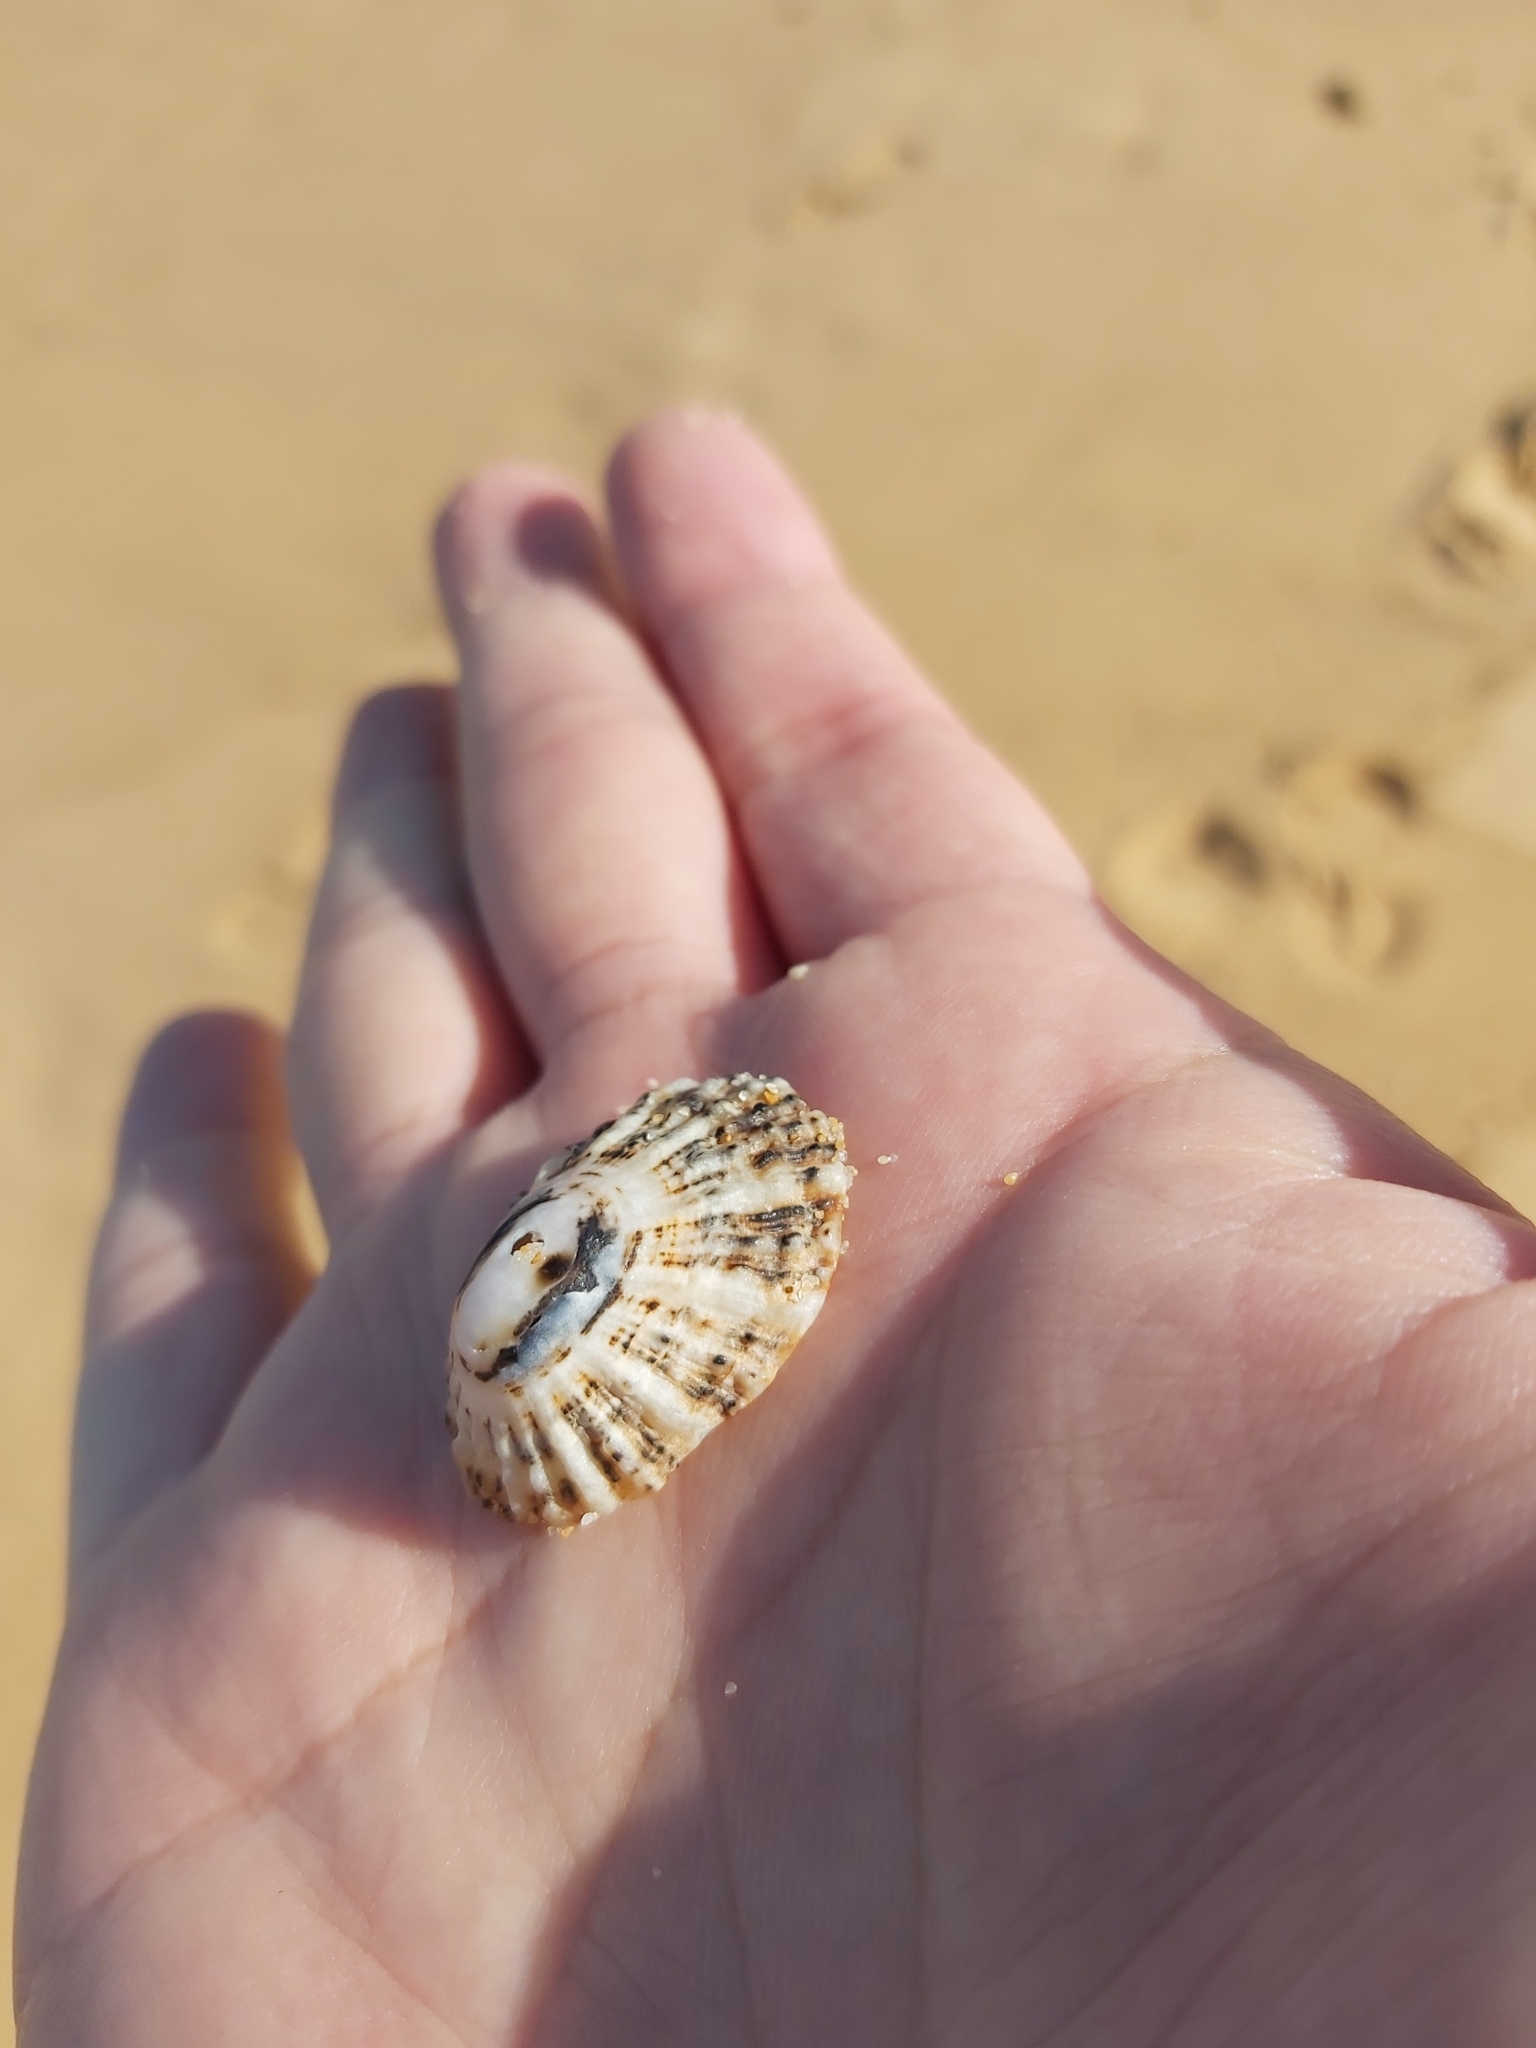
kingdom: Animalia
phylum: Mollusca
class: Gastropoda
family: Patellidae
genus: Scutellastra
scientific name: Scutellastra peronii
